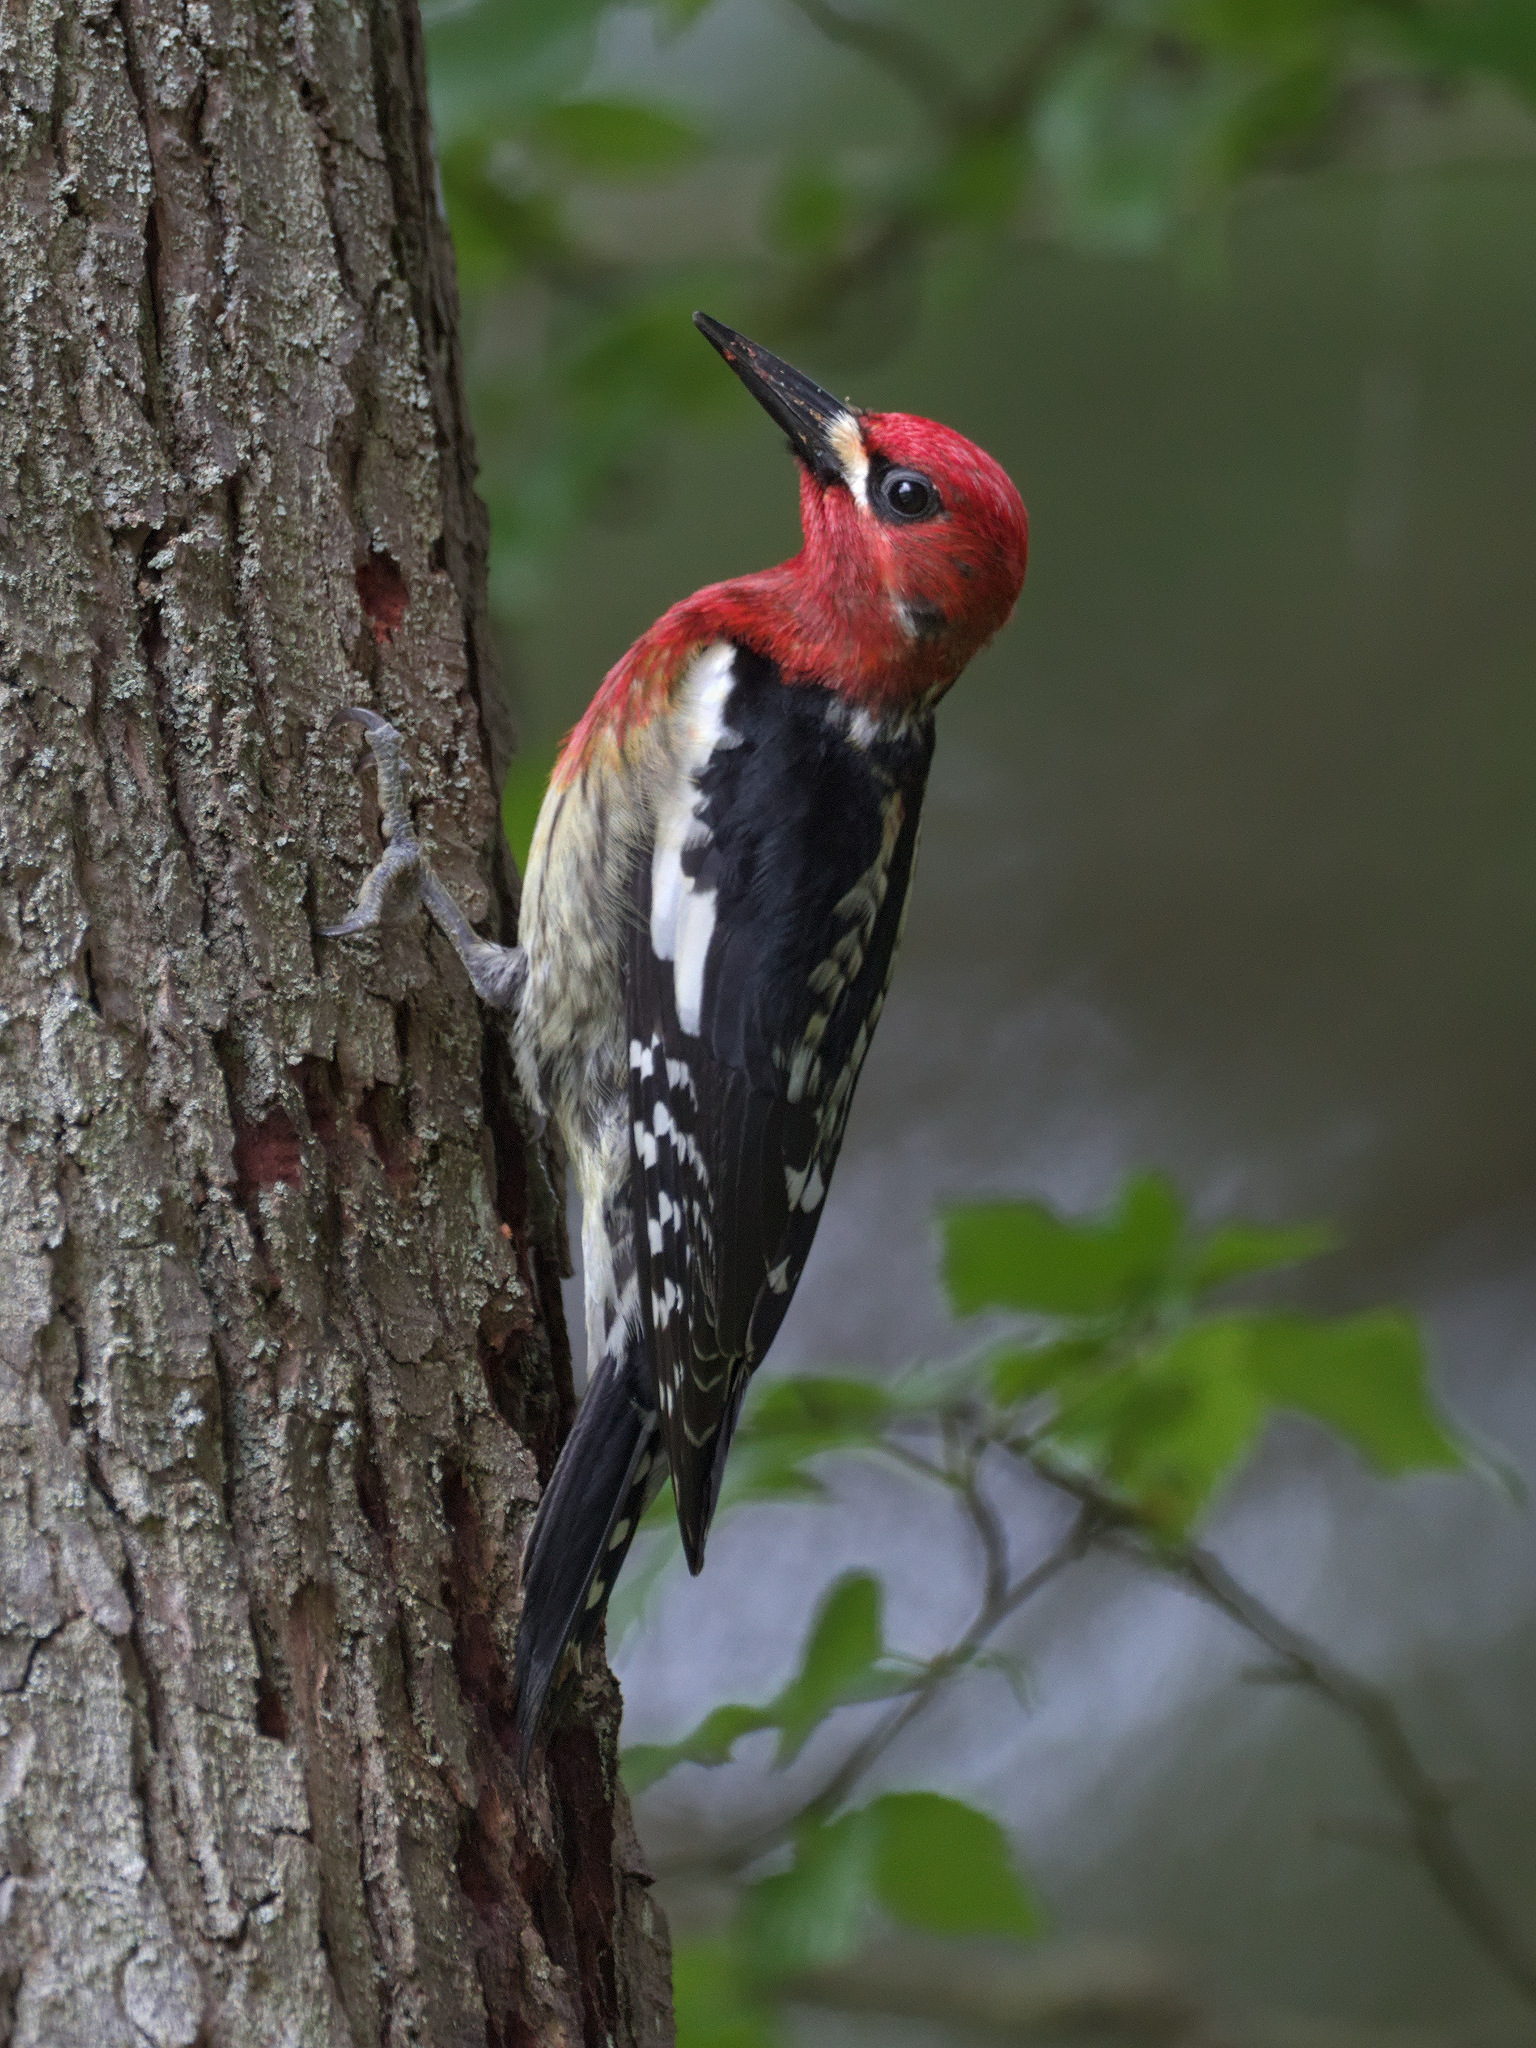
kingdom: Animalia
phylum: Chordata
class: Aves
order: Piciformes
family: Picidae
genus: Sphyrapicus
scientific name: Sphyrapicus ruber
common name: Red-breasted sapsucker
